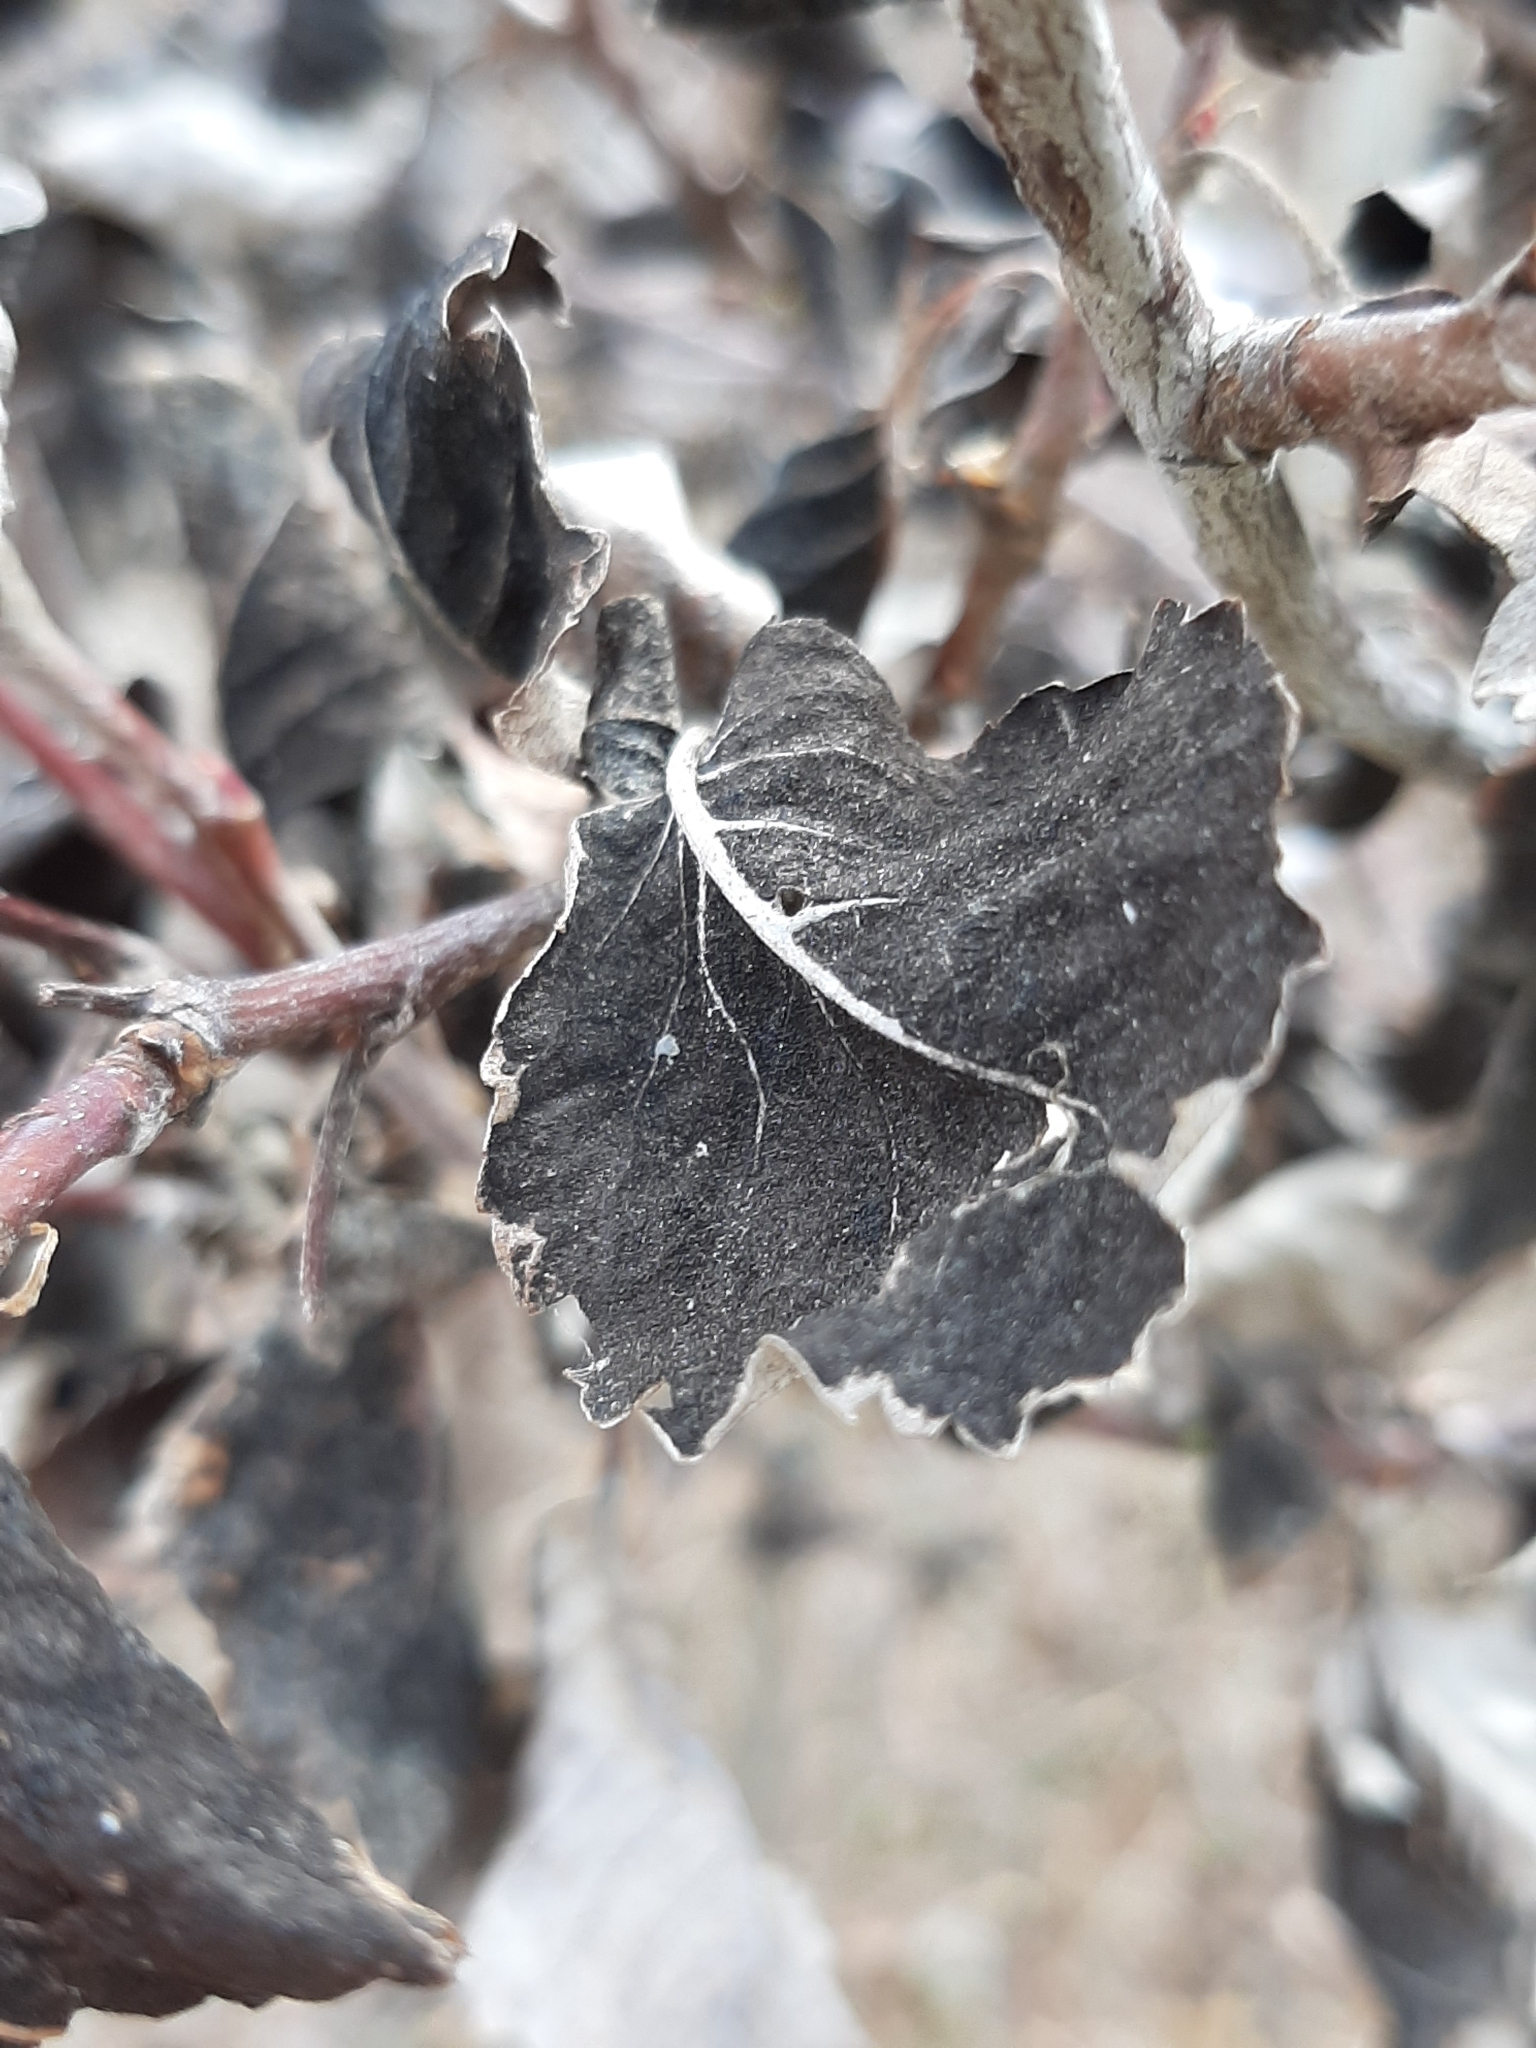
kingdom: Fungi
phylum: Ascomycota
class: Dothideomycetes
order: Venturiales
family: Venturiaceae
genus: Apiosporina
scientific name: Apiosporina collinsii
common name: Black leaf
